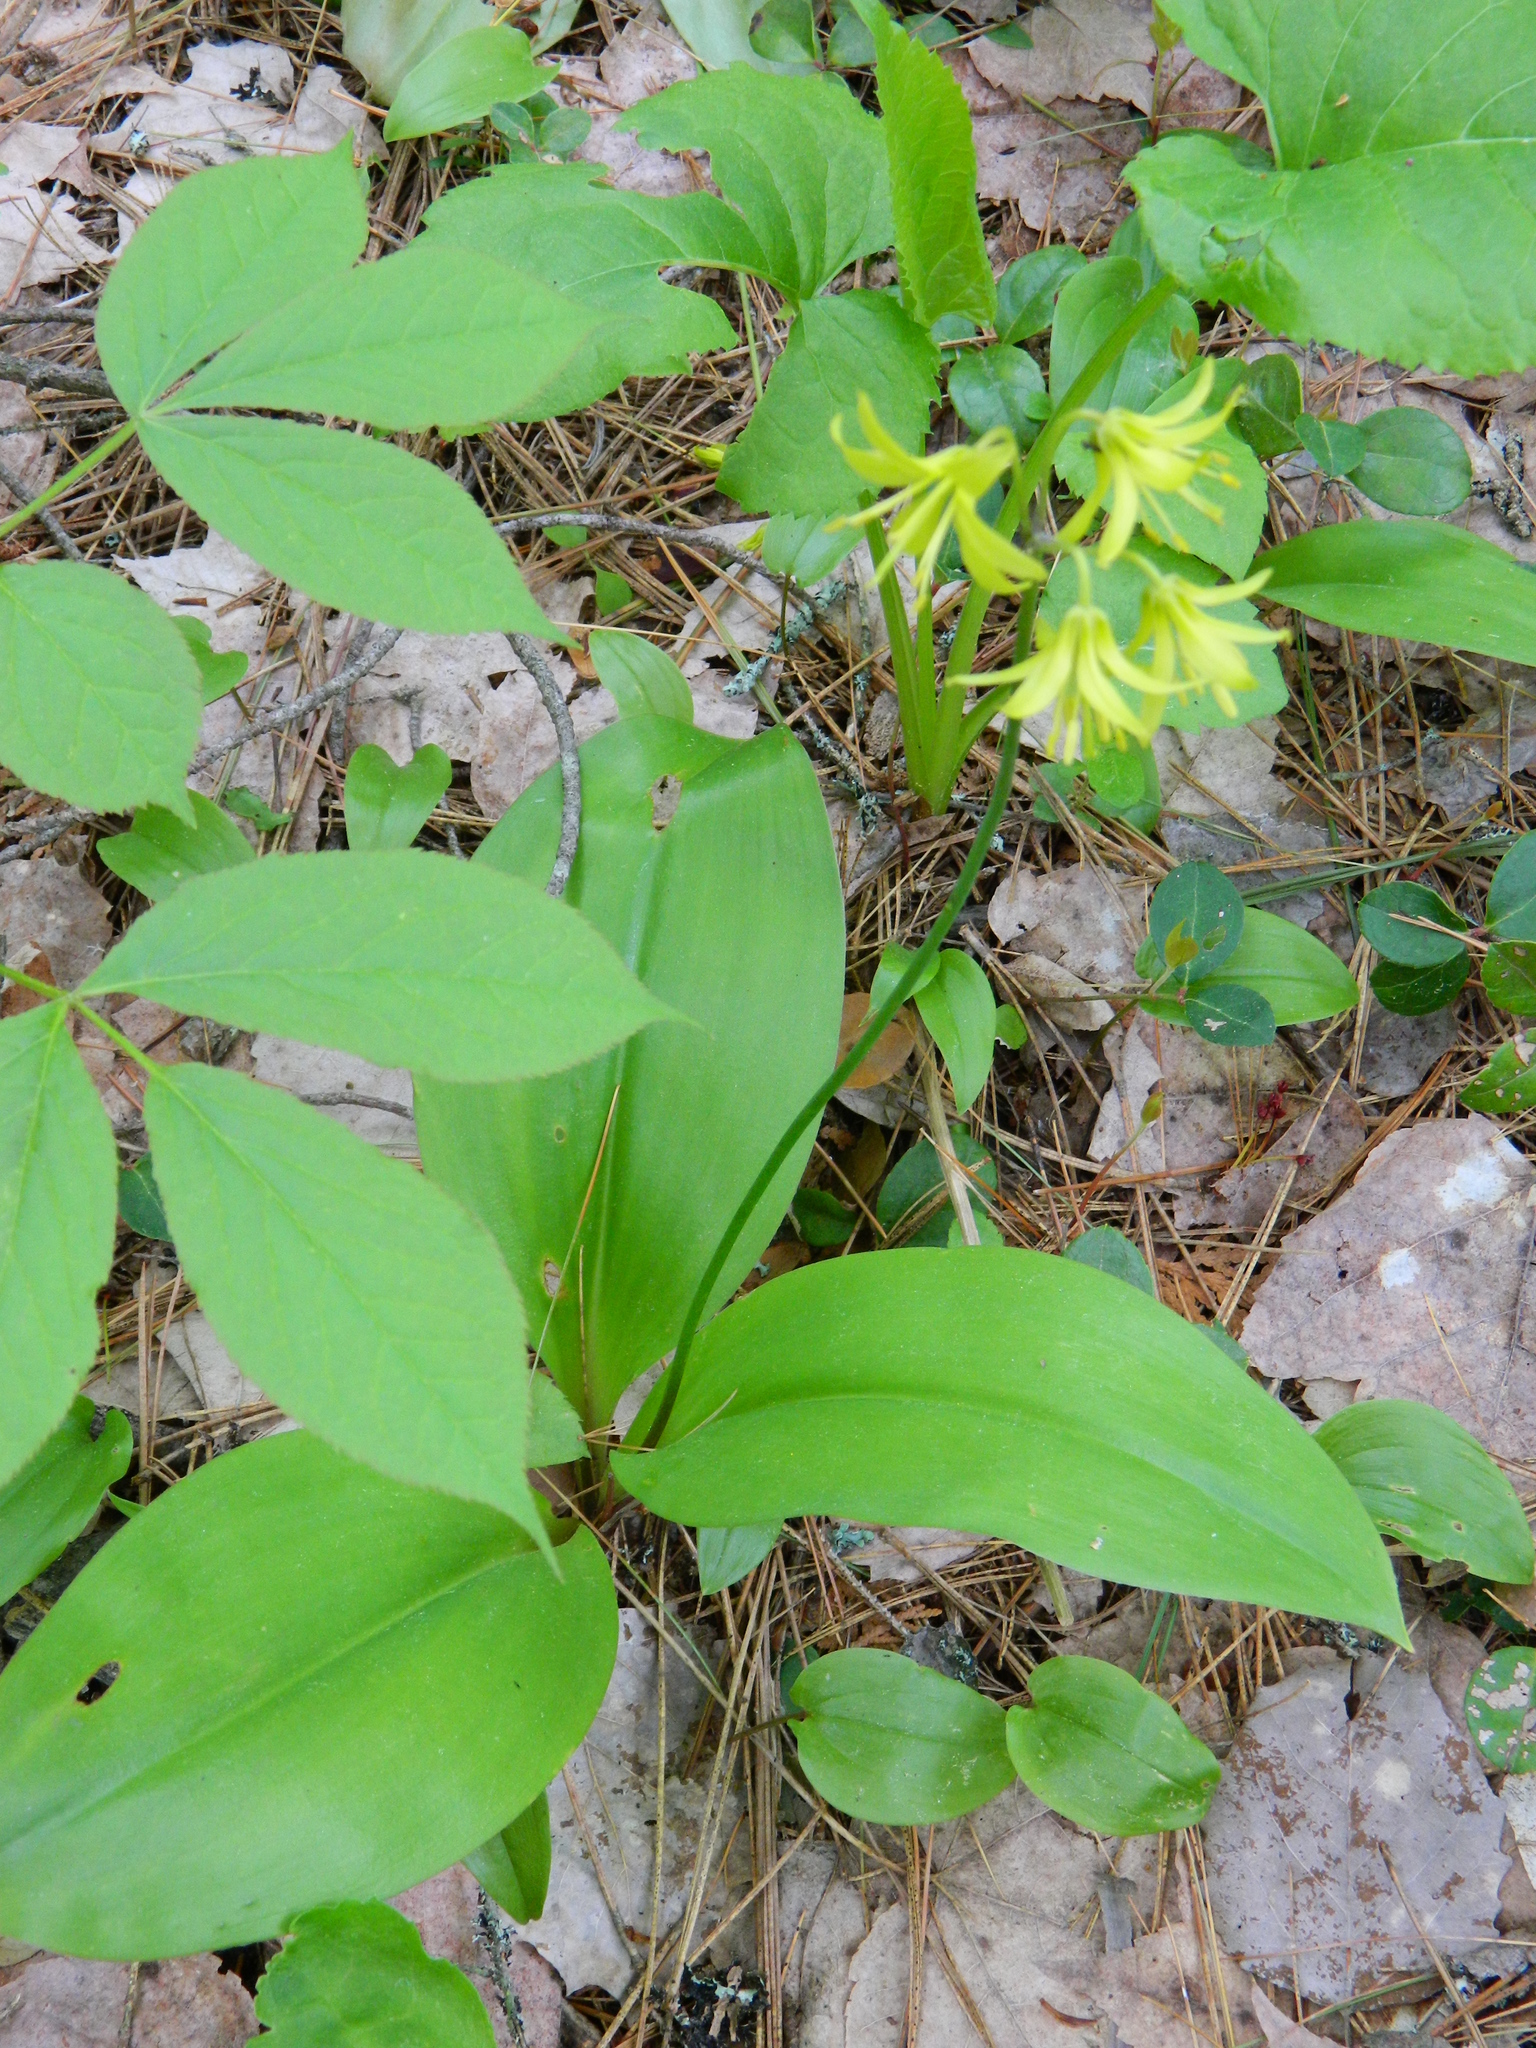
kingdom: Plantae
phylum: Tracheophyta
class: Liliopsida
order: Liliales
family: Liliaceae
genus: Clintonia
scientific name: Clintonia borealis
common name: Yellow clintonia
